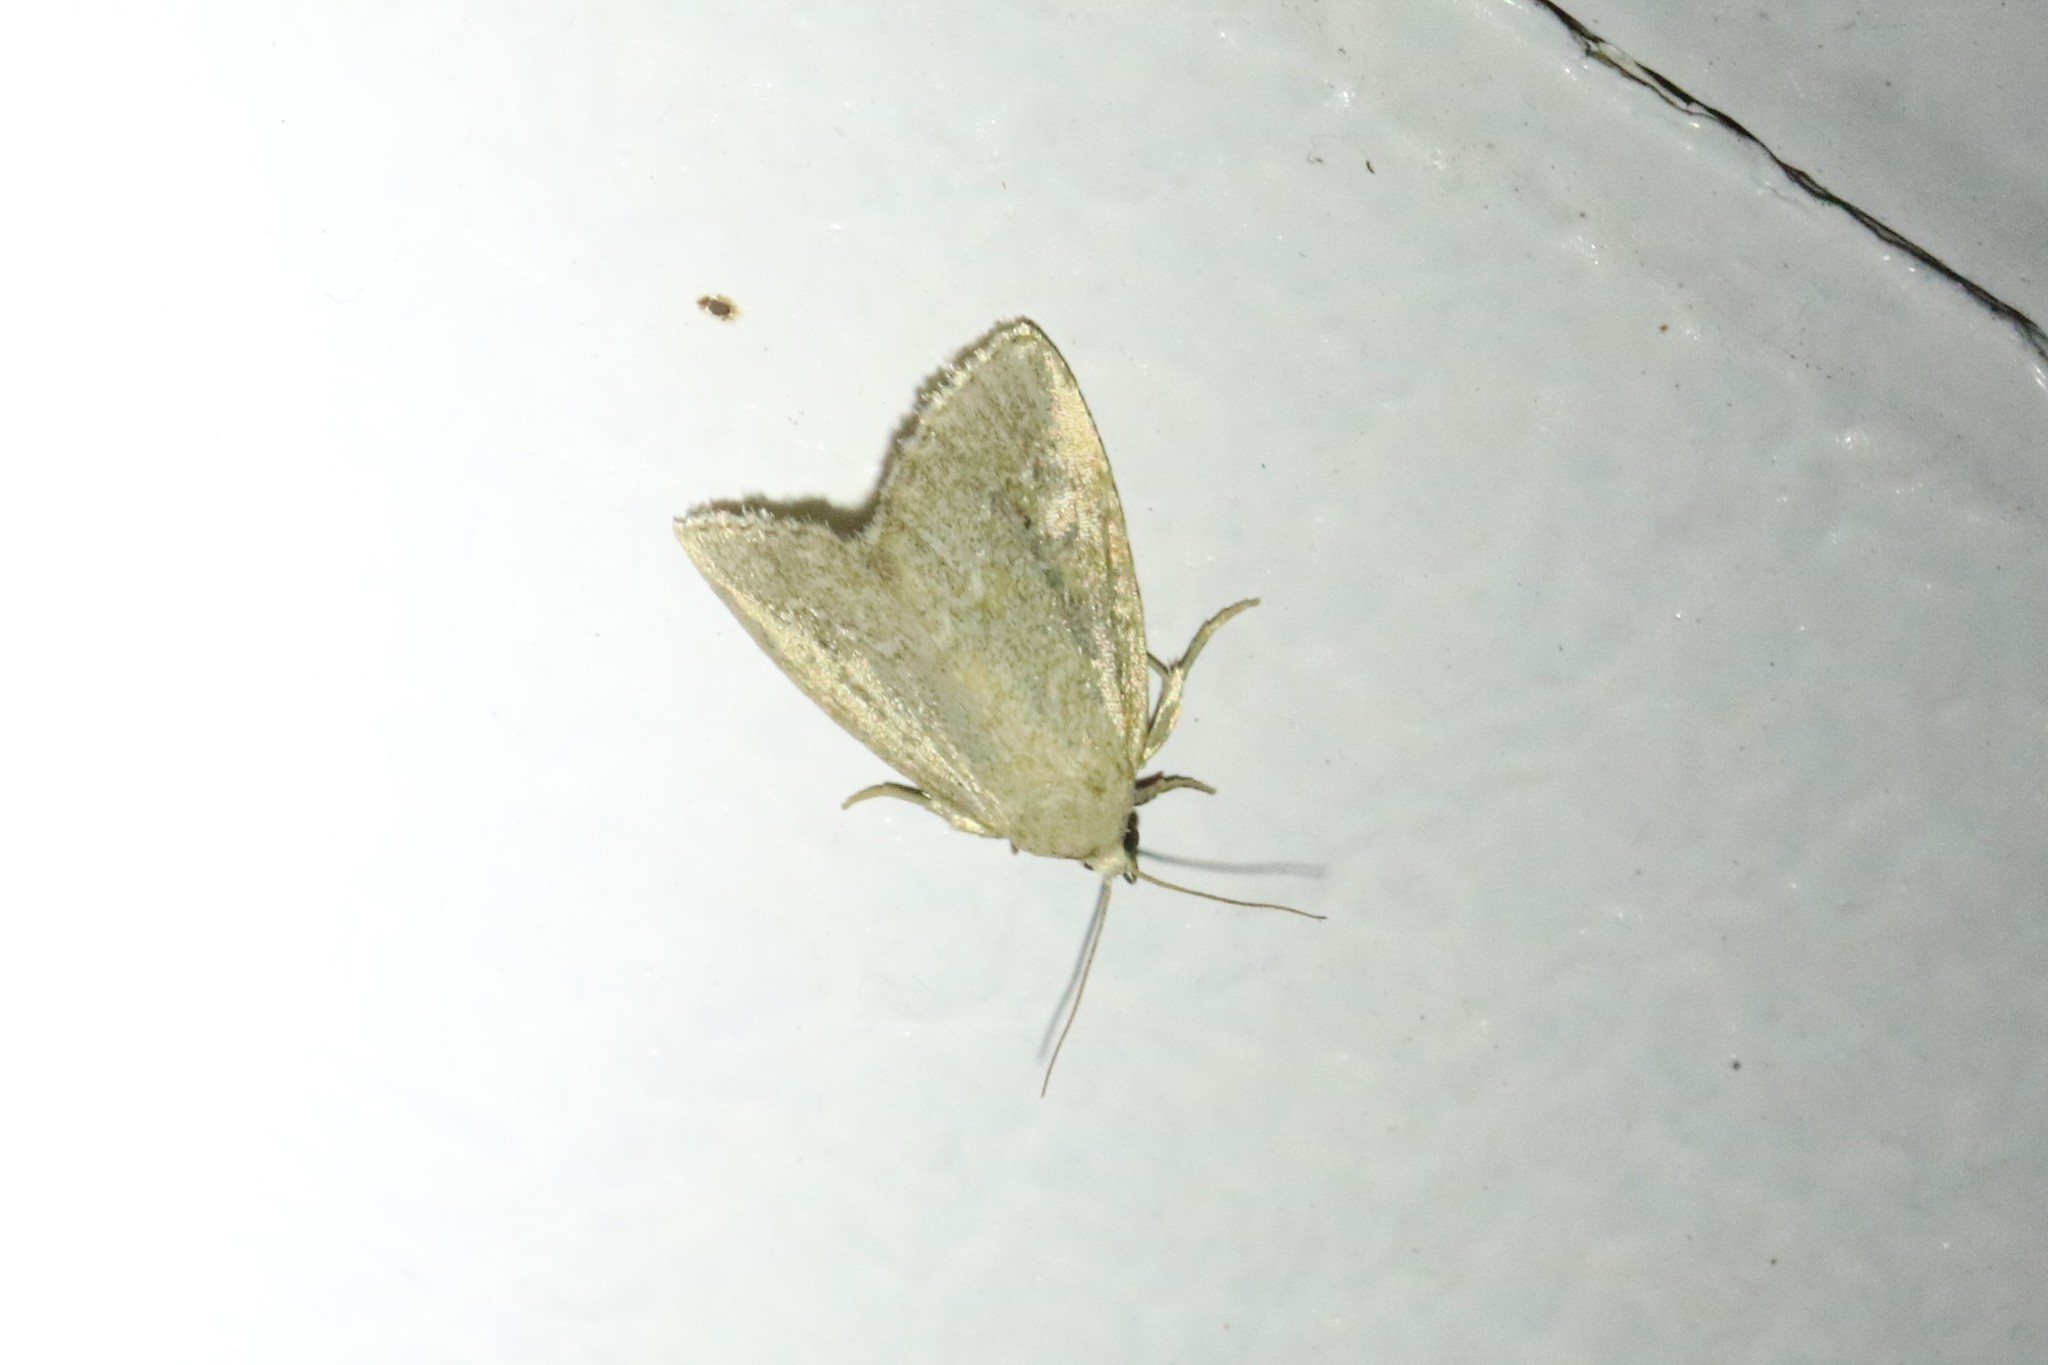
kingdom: Animalia
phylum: Arthropoda
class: Insecta
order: Lepidoptera
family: Noctuidae
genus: Protodeltote
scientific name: Protodeltote albidula
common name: Pale glyph
